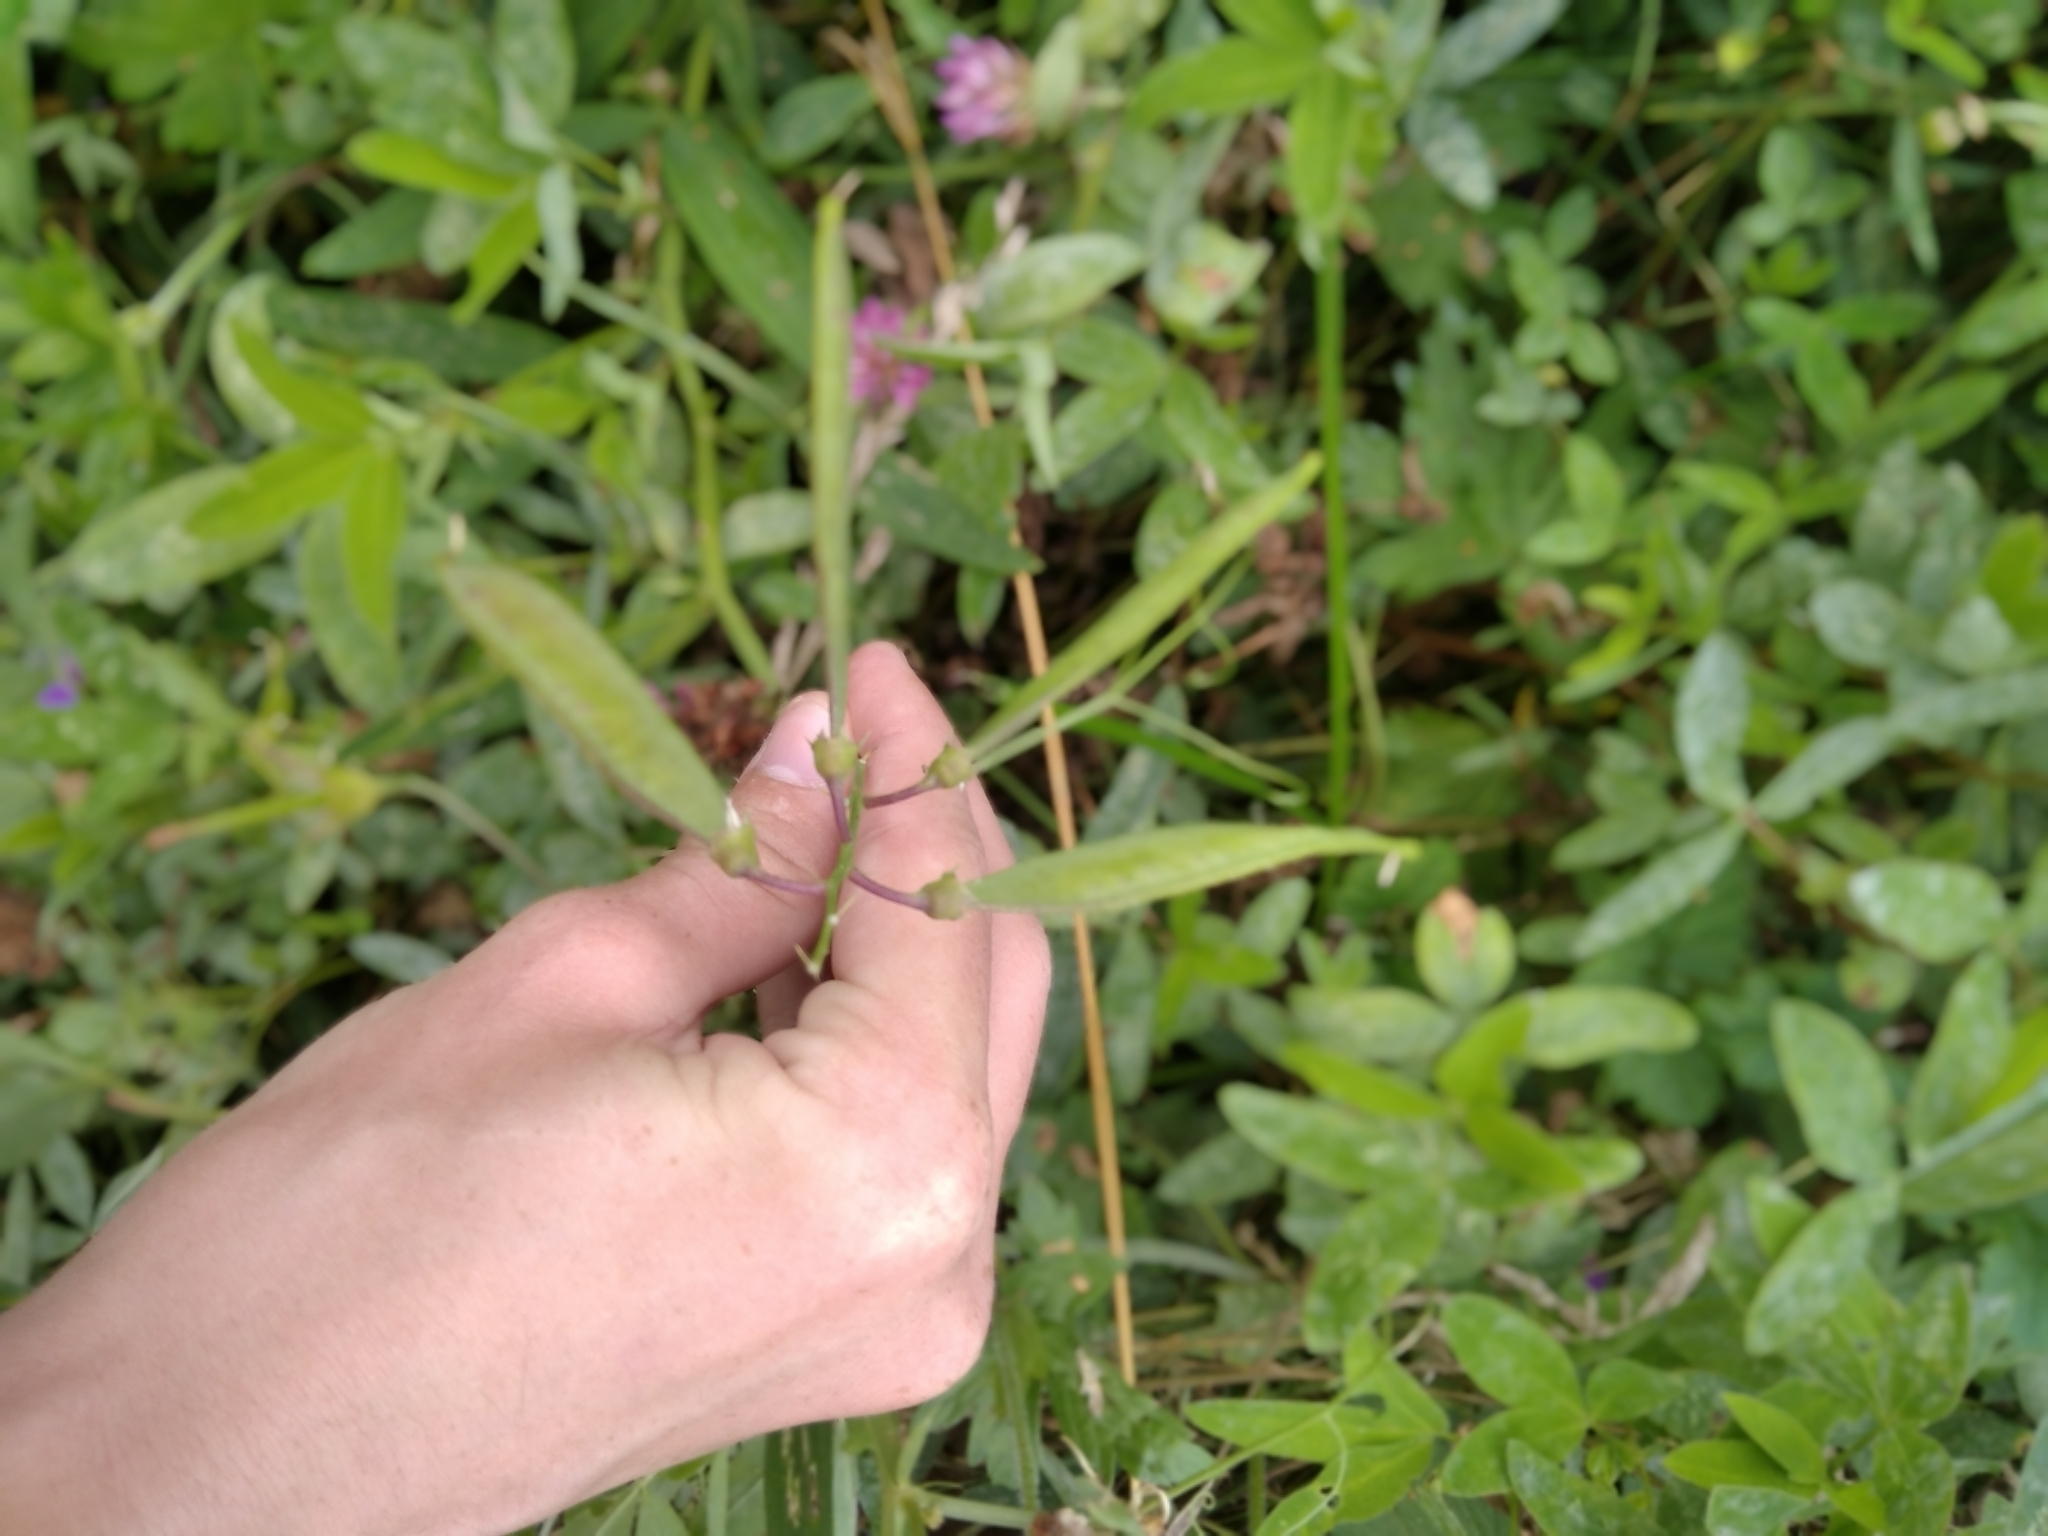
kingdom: Plantae
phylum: Tracheophyta
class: Magnoliopsida
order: Fabales
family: Fabaceae
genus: Lathyrus
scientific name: Lathyrus sylvestris
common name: Flat pea
